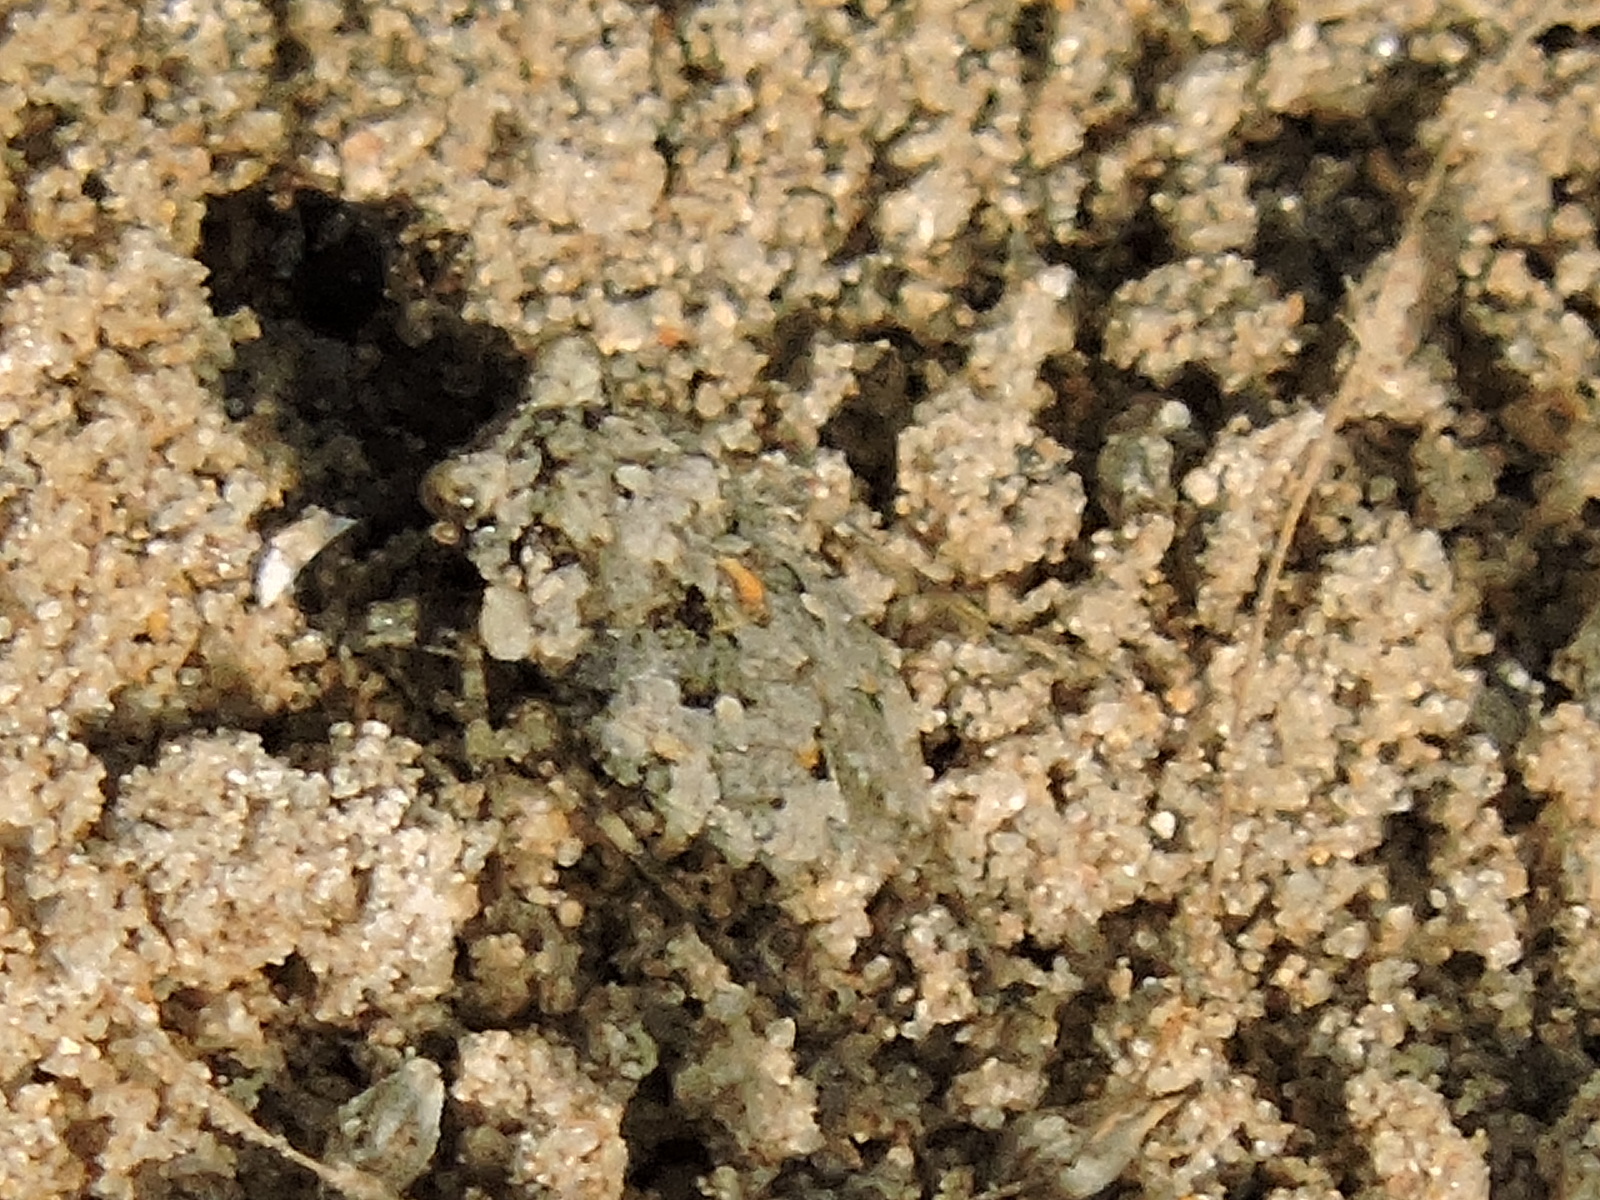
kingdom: Animalia
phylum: Arthropoda
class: Insecta
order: Hemiptera
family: Gelastocoridae
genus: Gelastocoris
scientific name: Gelastocoris oculatus
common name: Toad bug
